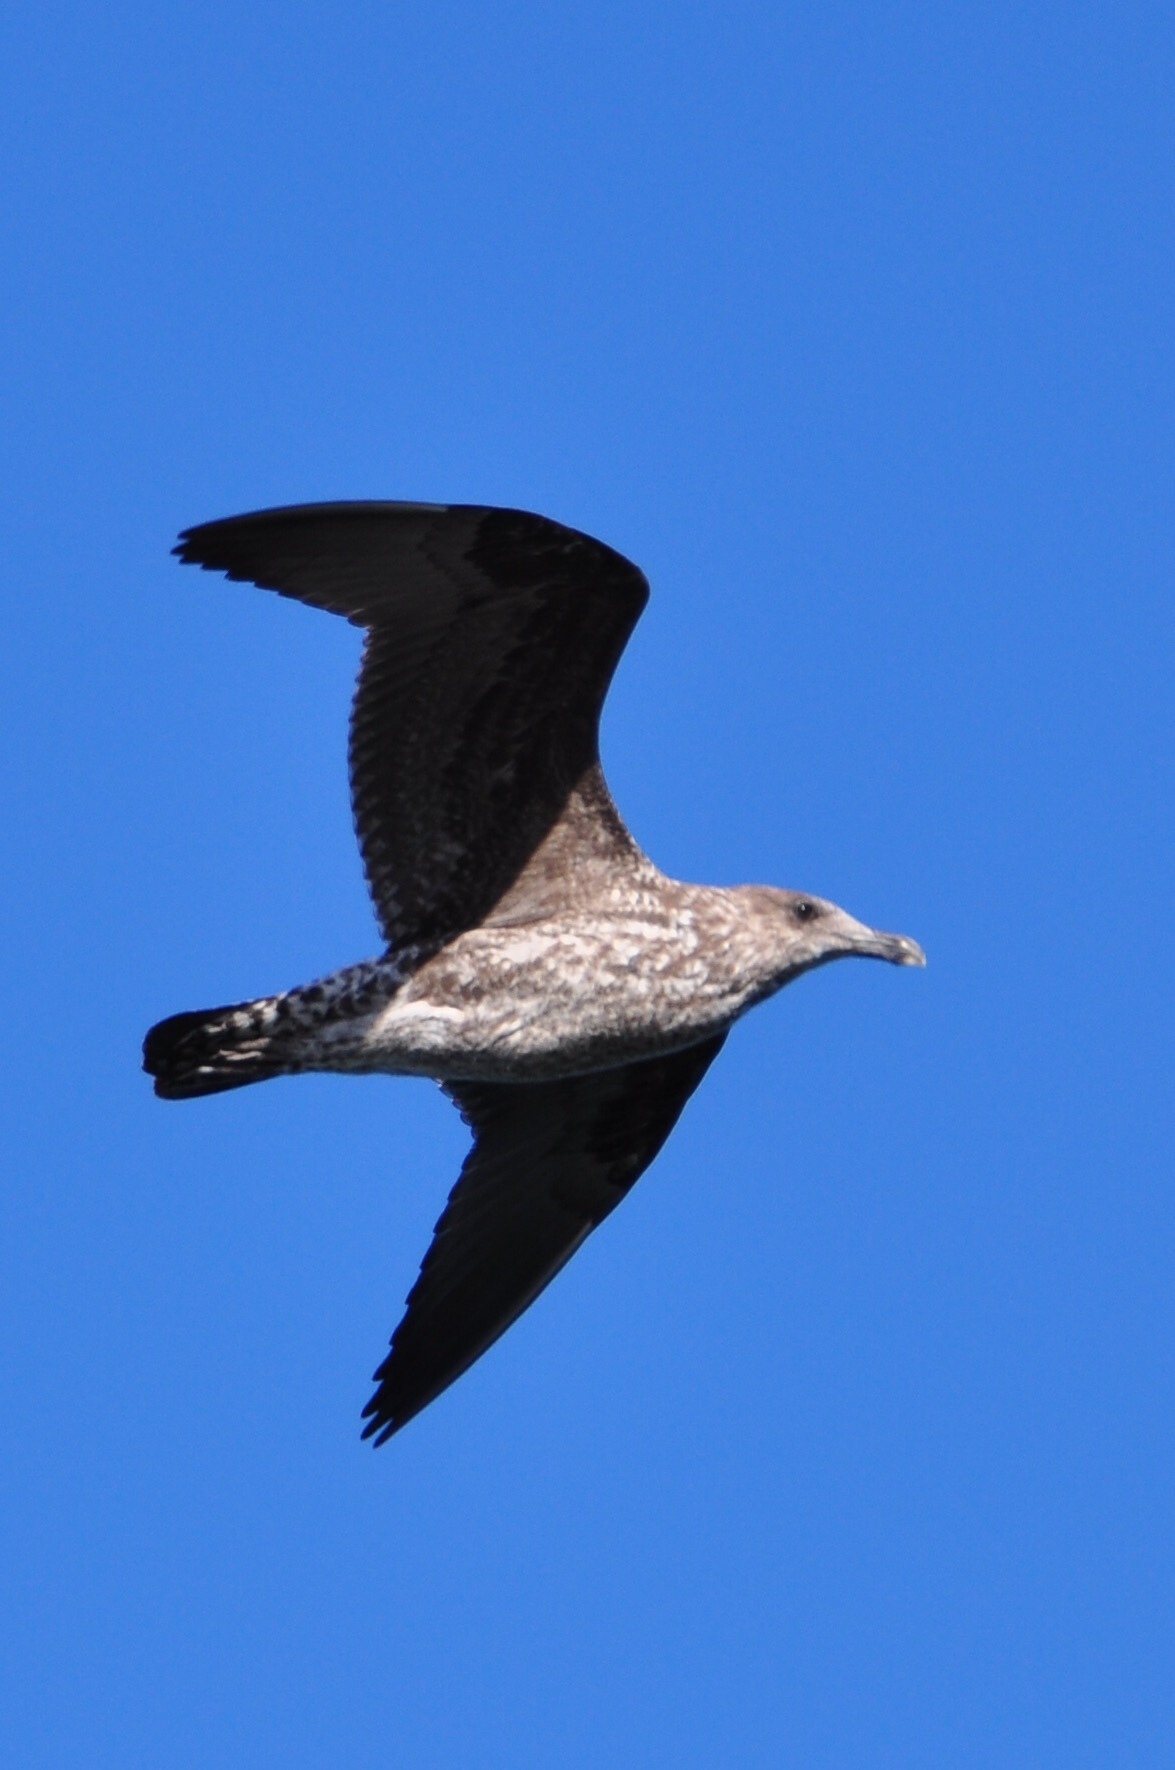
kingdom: Animalia
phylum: Chordata
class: Aves
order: Charadriiformes
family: Laridae
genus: Larus
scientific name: Larus dominicanus
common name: Kelp gull
